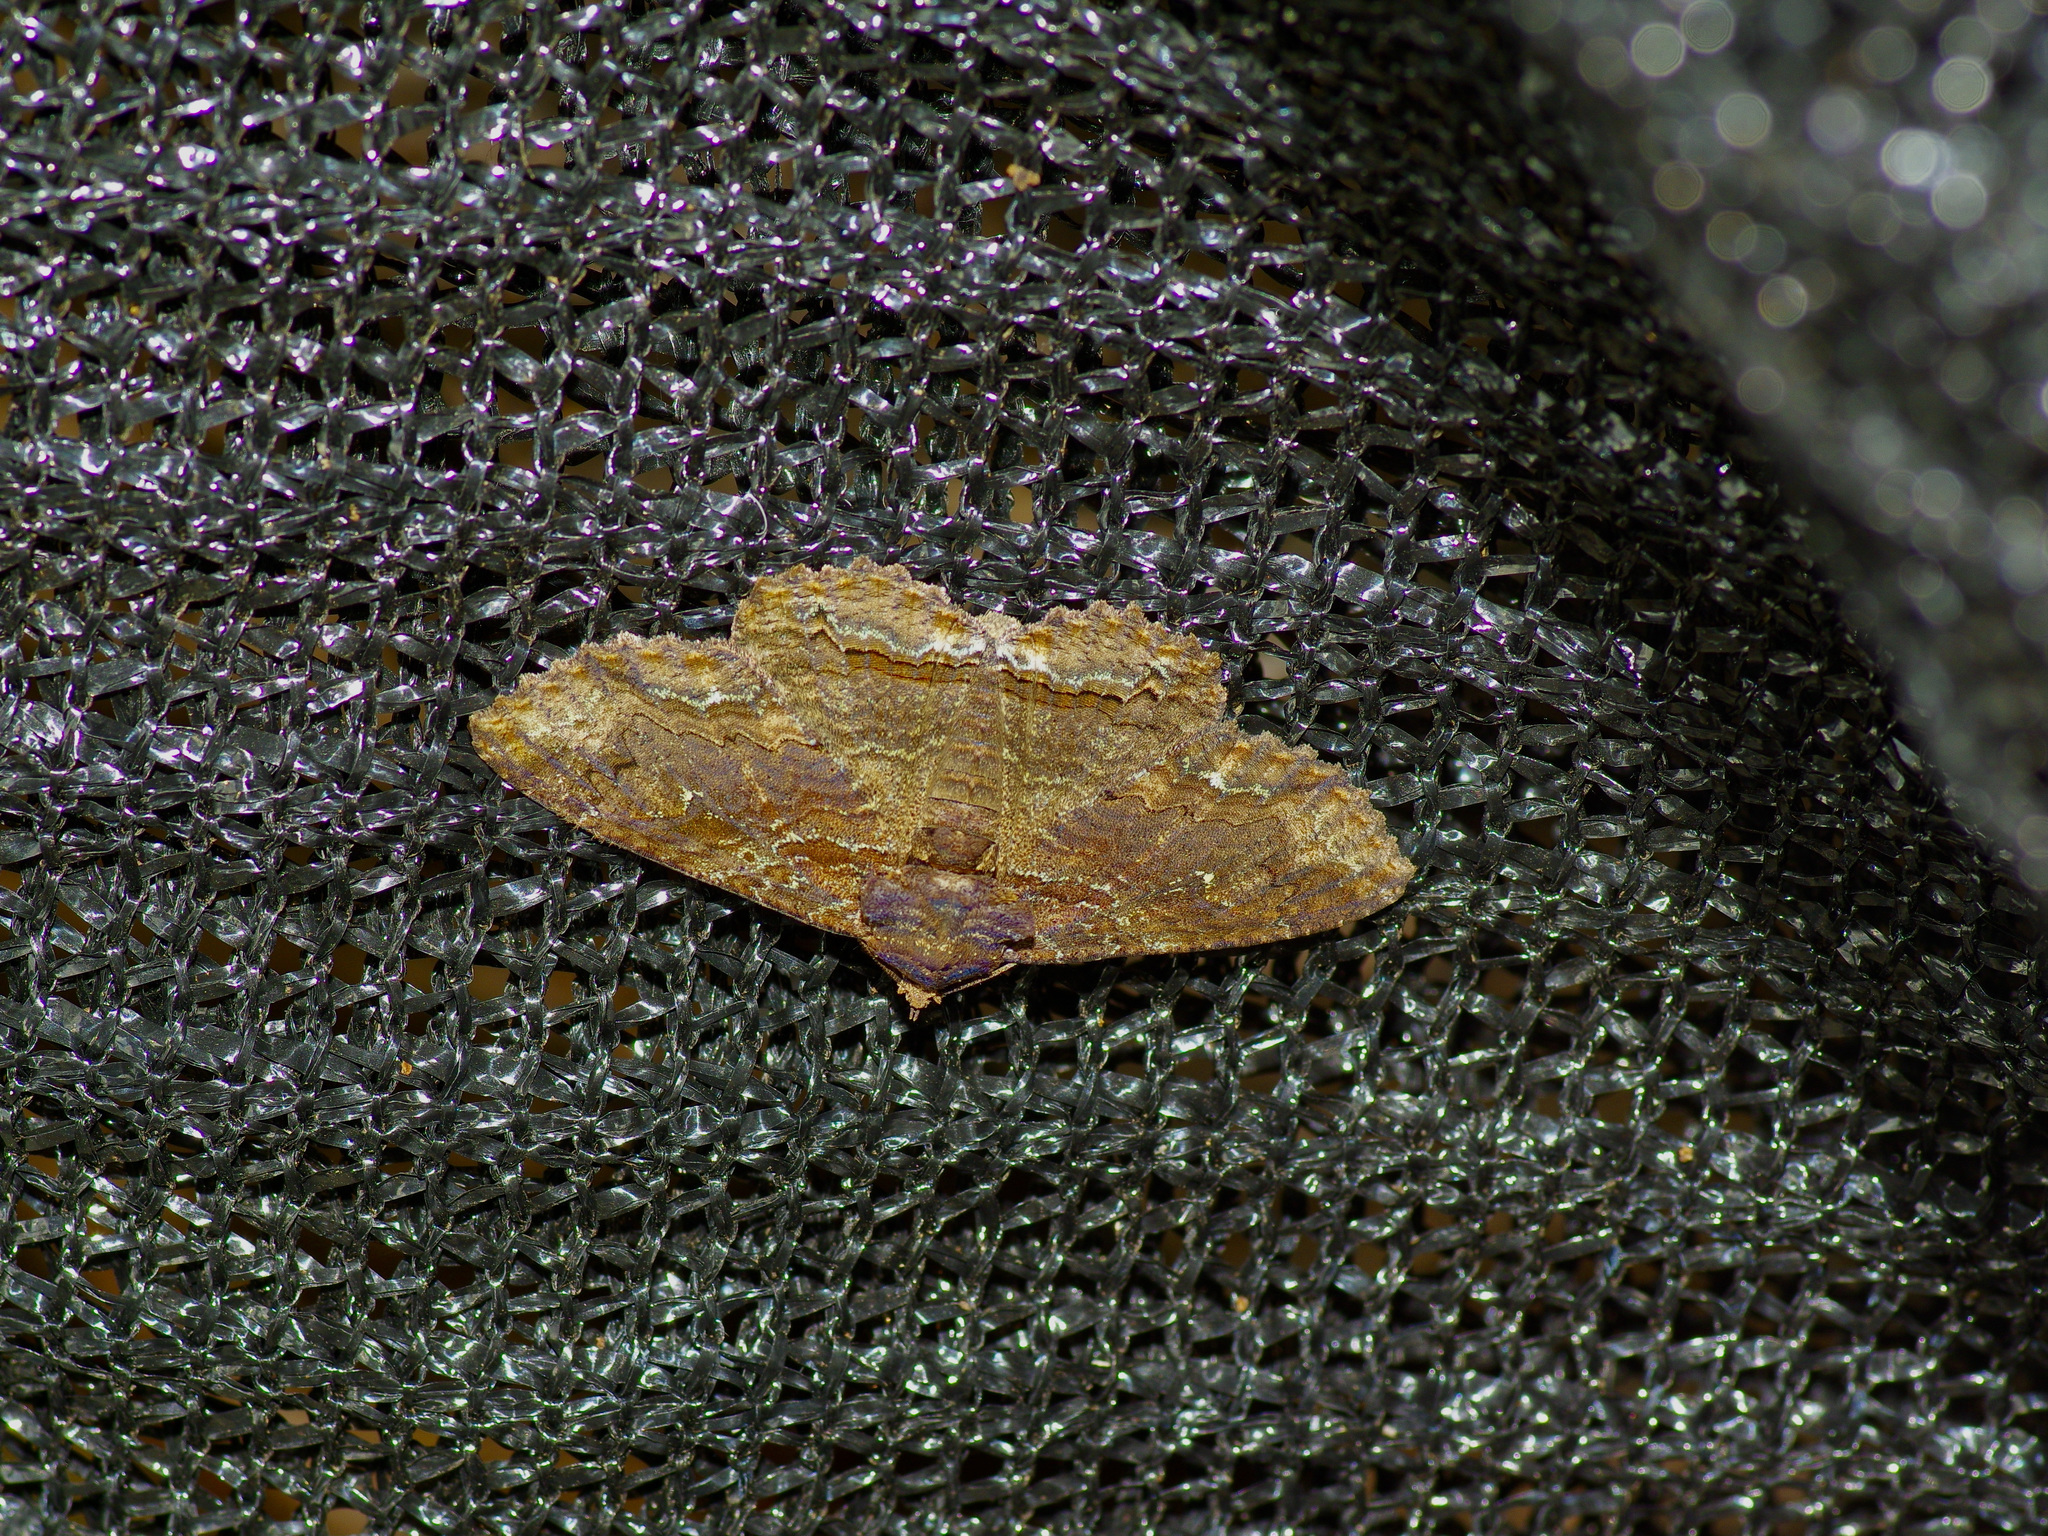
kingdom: Animalia
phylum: Arthropoda
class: Insecta
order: Lepidoptera
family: Erebidae
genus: Zale
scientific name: Zale lunata
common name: Lunate zale moth
